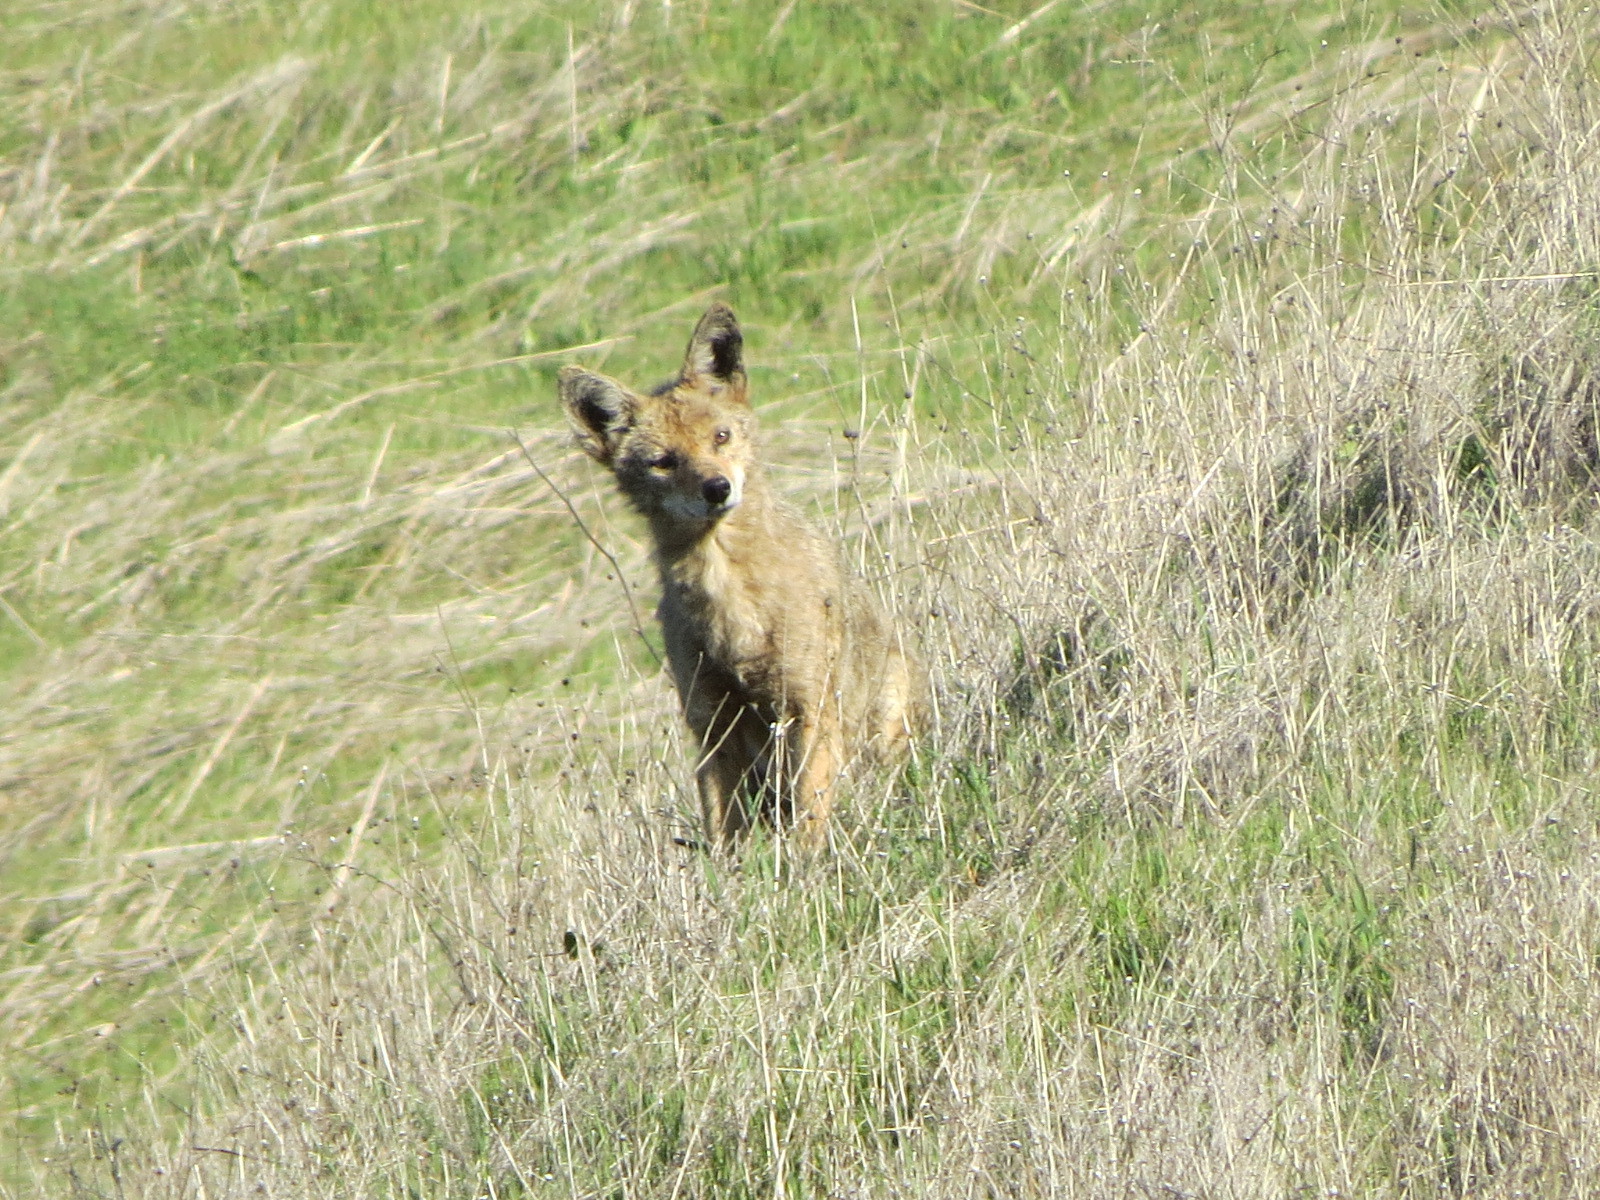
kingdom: Animalia
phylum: Chordata
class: Mammalia
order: Carnivora
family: Canidae
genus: Canis
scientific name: Canis latrans
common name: Coyote
